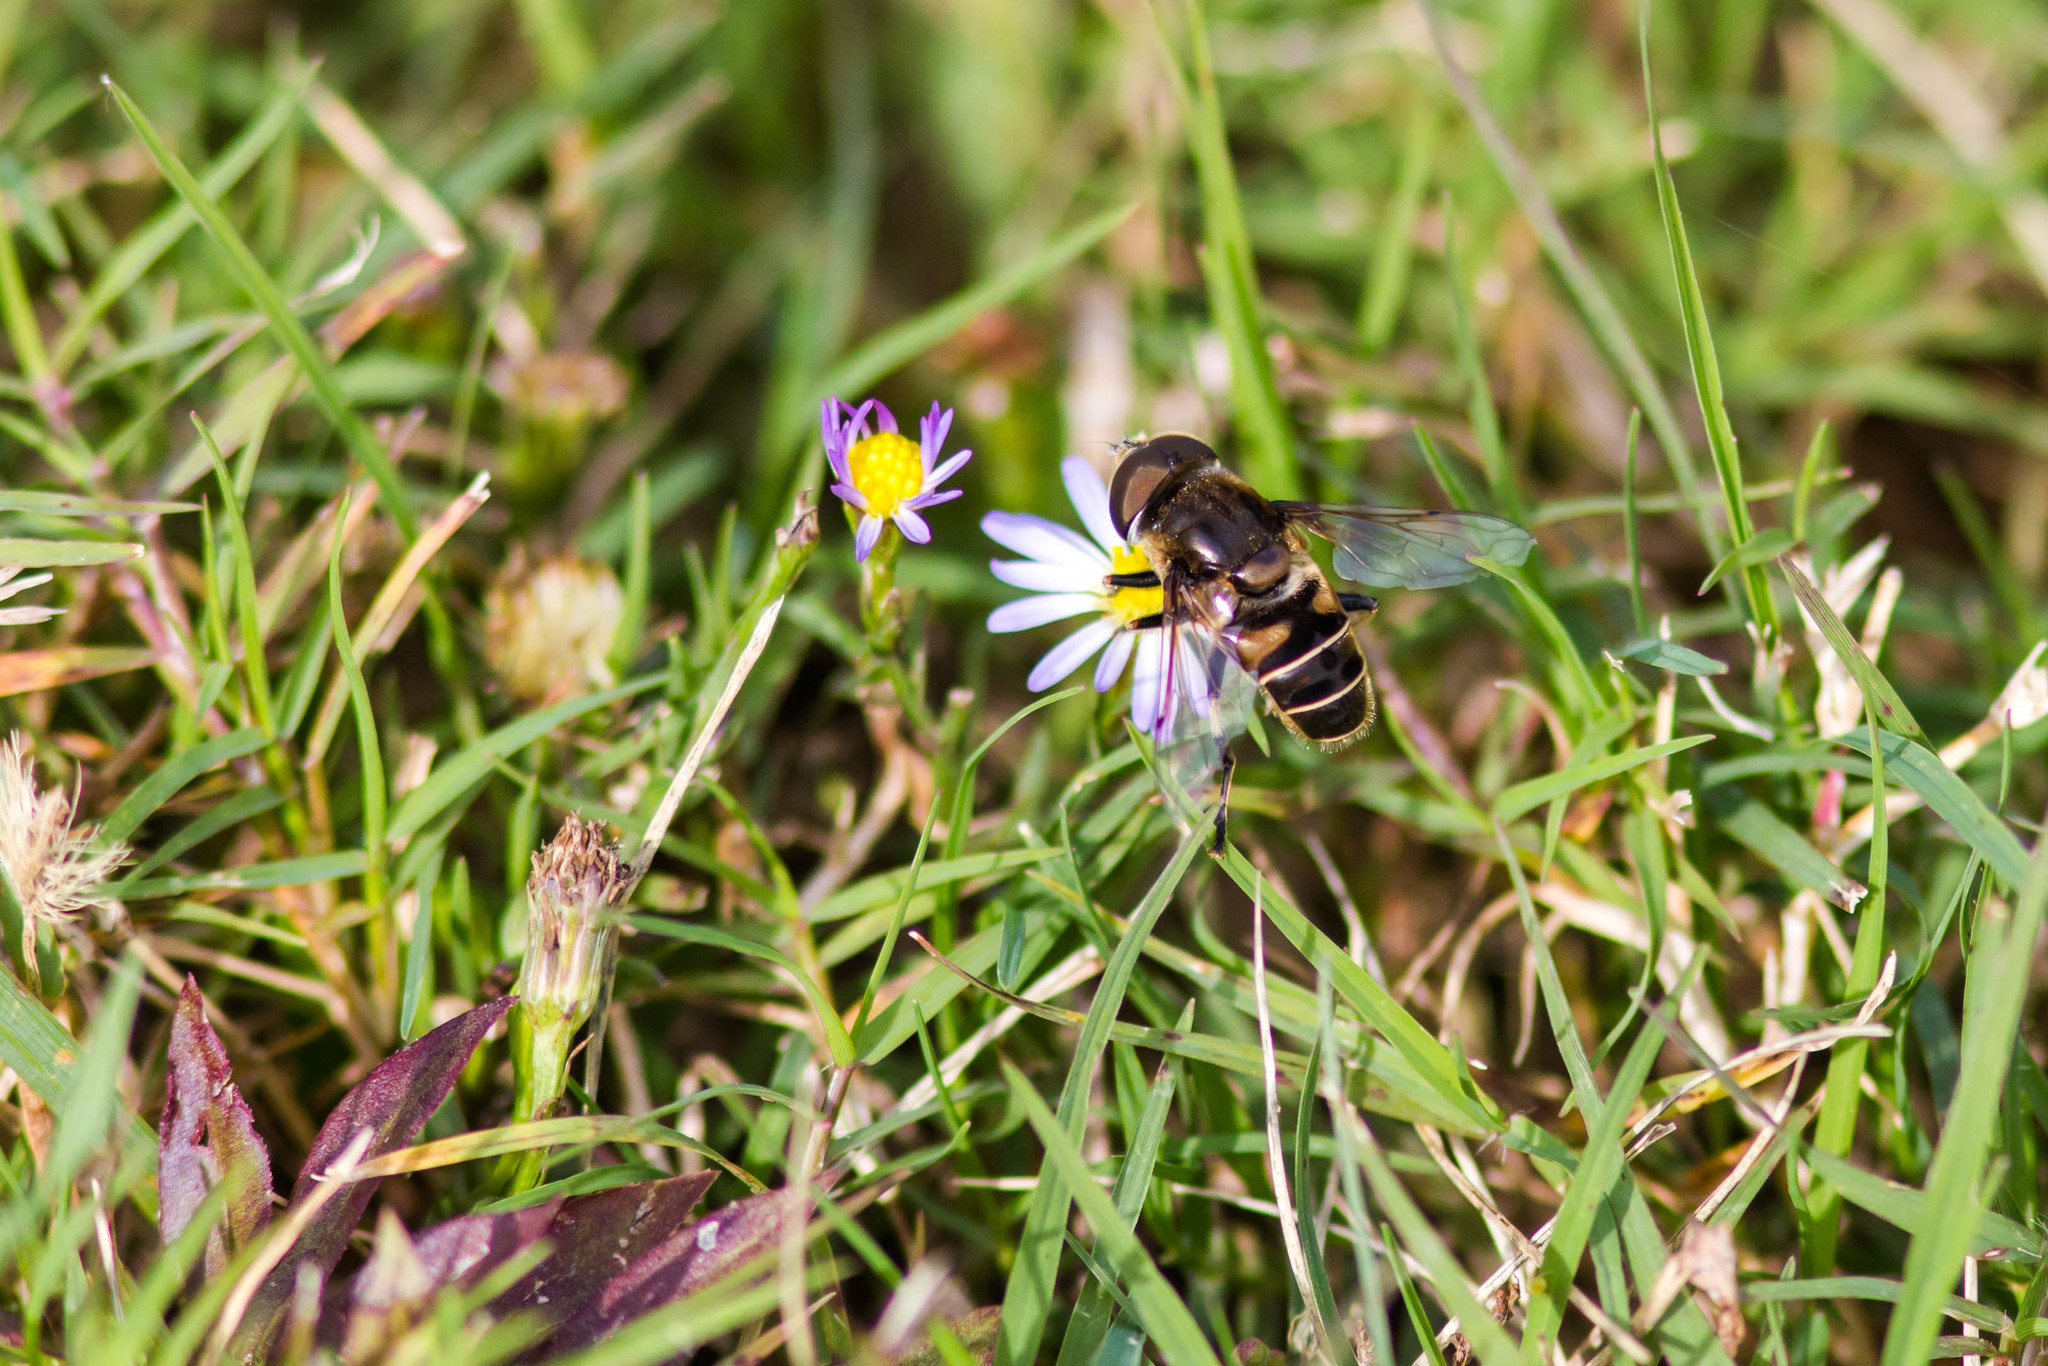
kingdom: Animalia
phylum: Arthropoda
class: Insecta
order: Diptera
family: Syrphidae
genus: Eristalis
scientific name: Eristalis dimidiata
